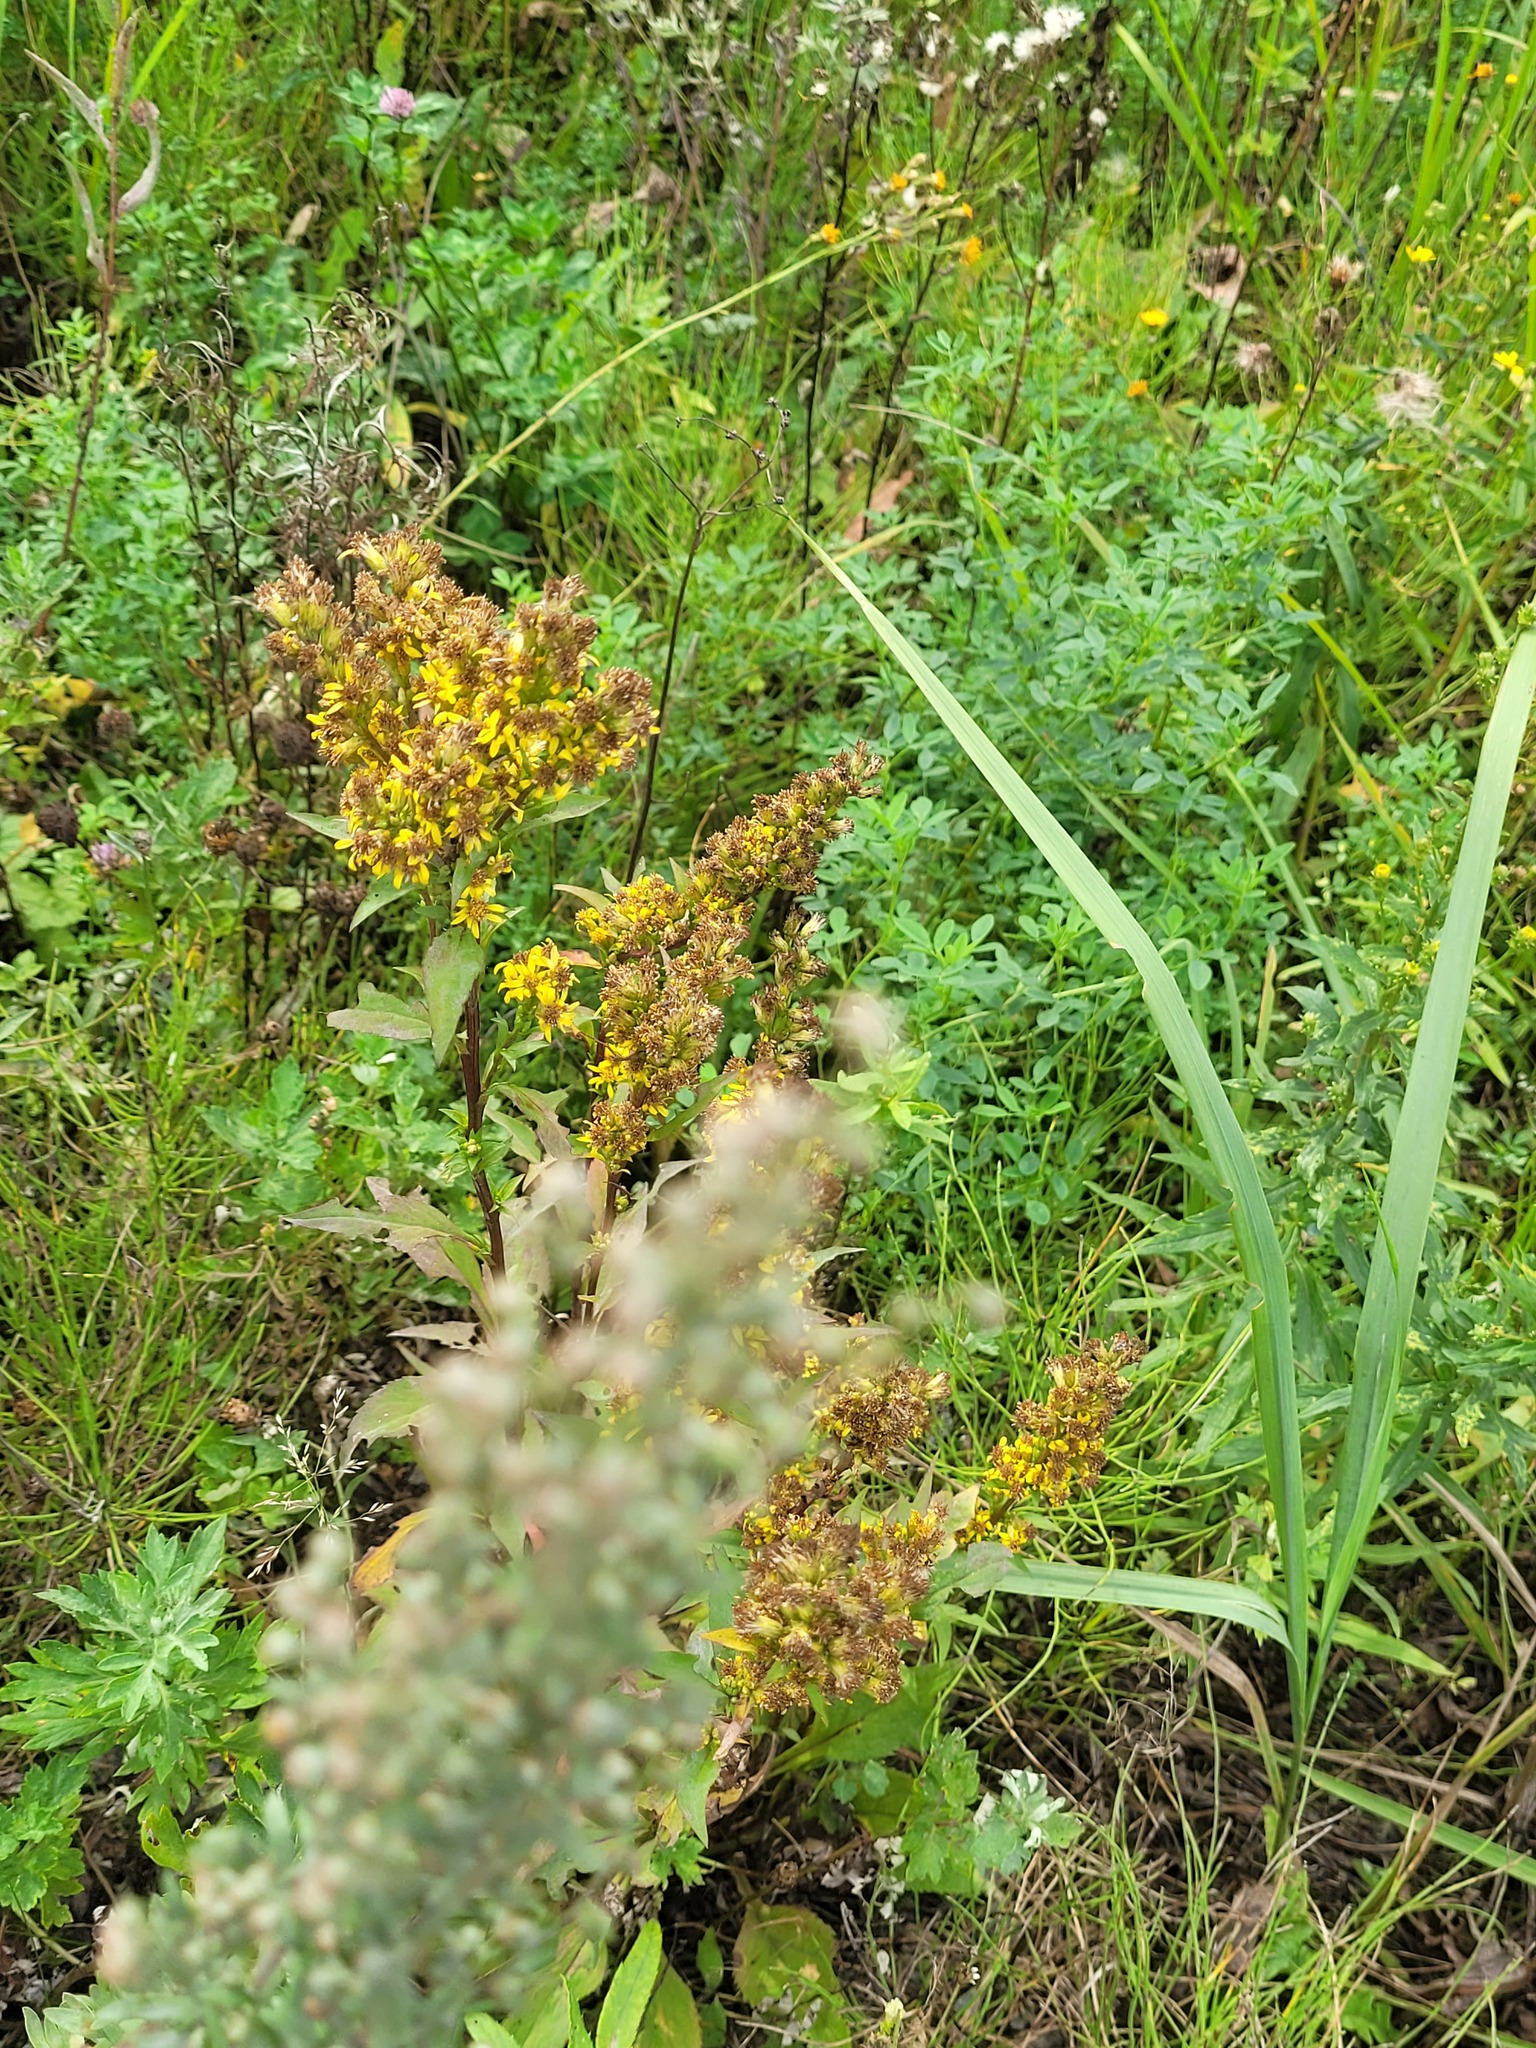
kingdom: Plantae
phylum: Tracheophyta
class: Magnoliopsida
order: Asterales
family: Asteraceae
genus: Solidago
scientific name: Solidago virgaurea
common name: Goldenrod
